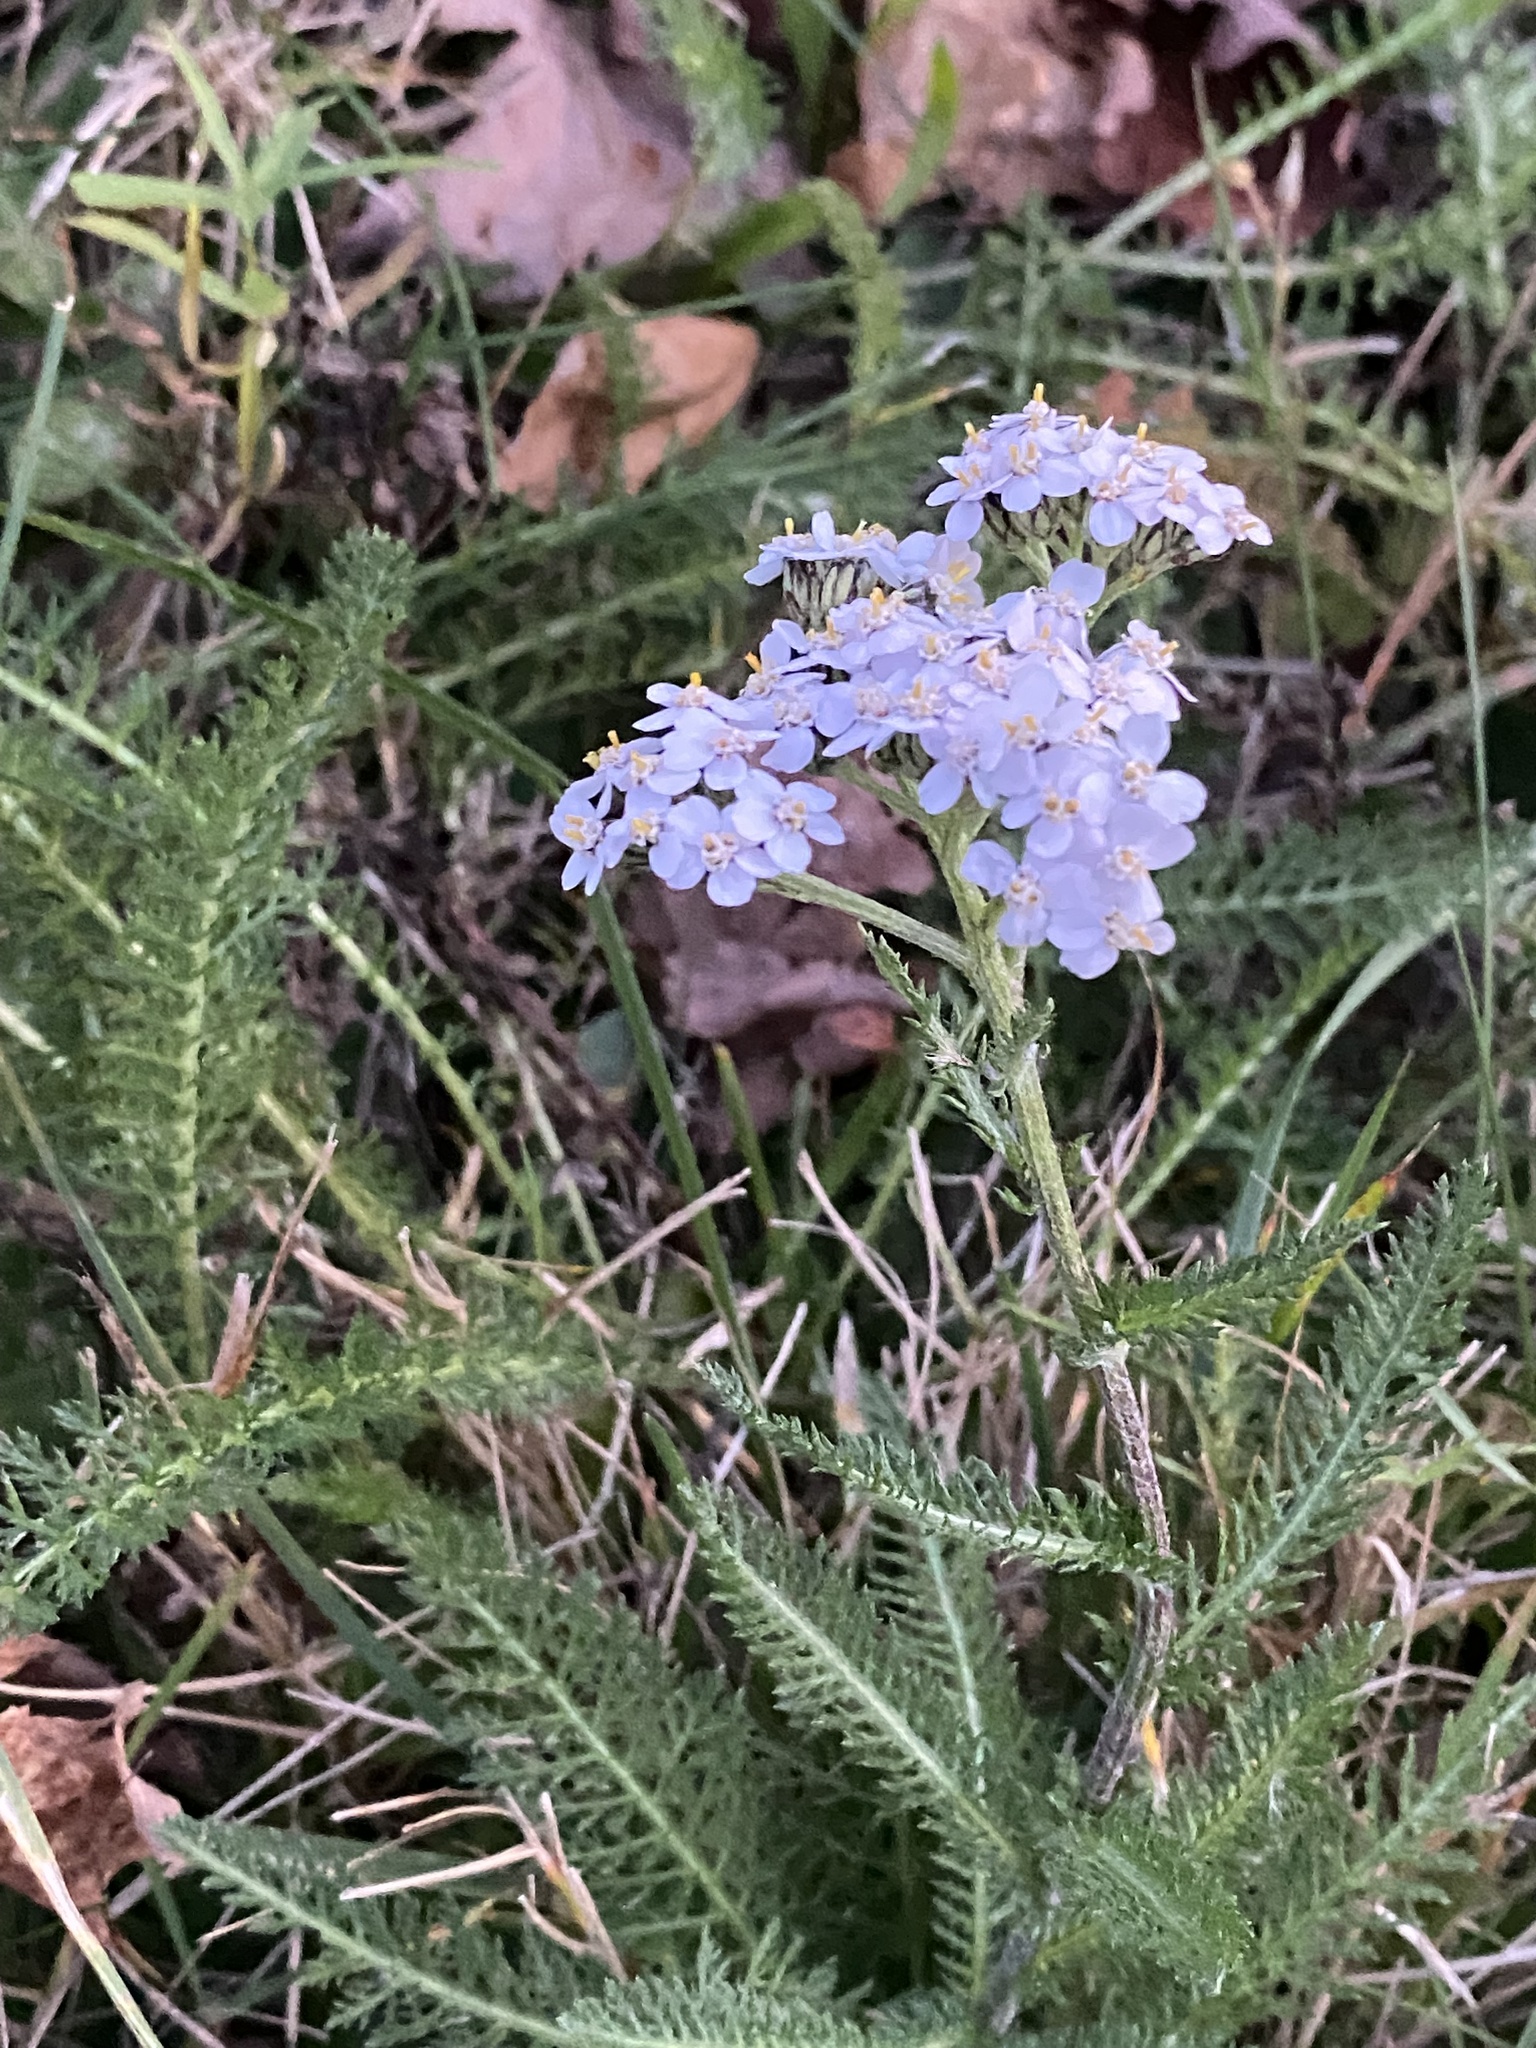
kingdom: Plantae
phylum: Tracheophyta
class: Magnoliopsida
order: Asterales
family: Asteraceae
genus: Achillea
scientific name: Achillea millefolium
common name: Yarrow
